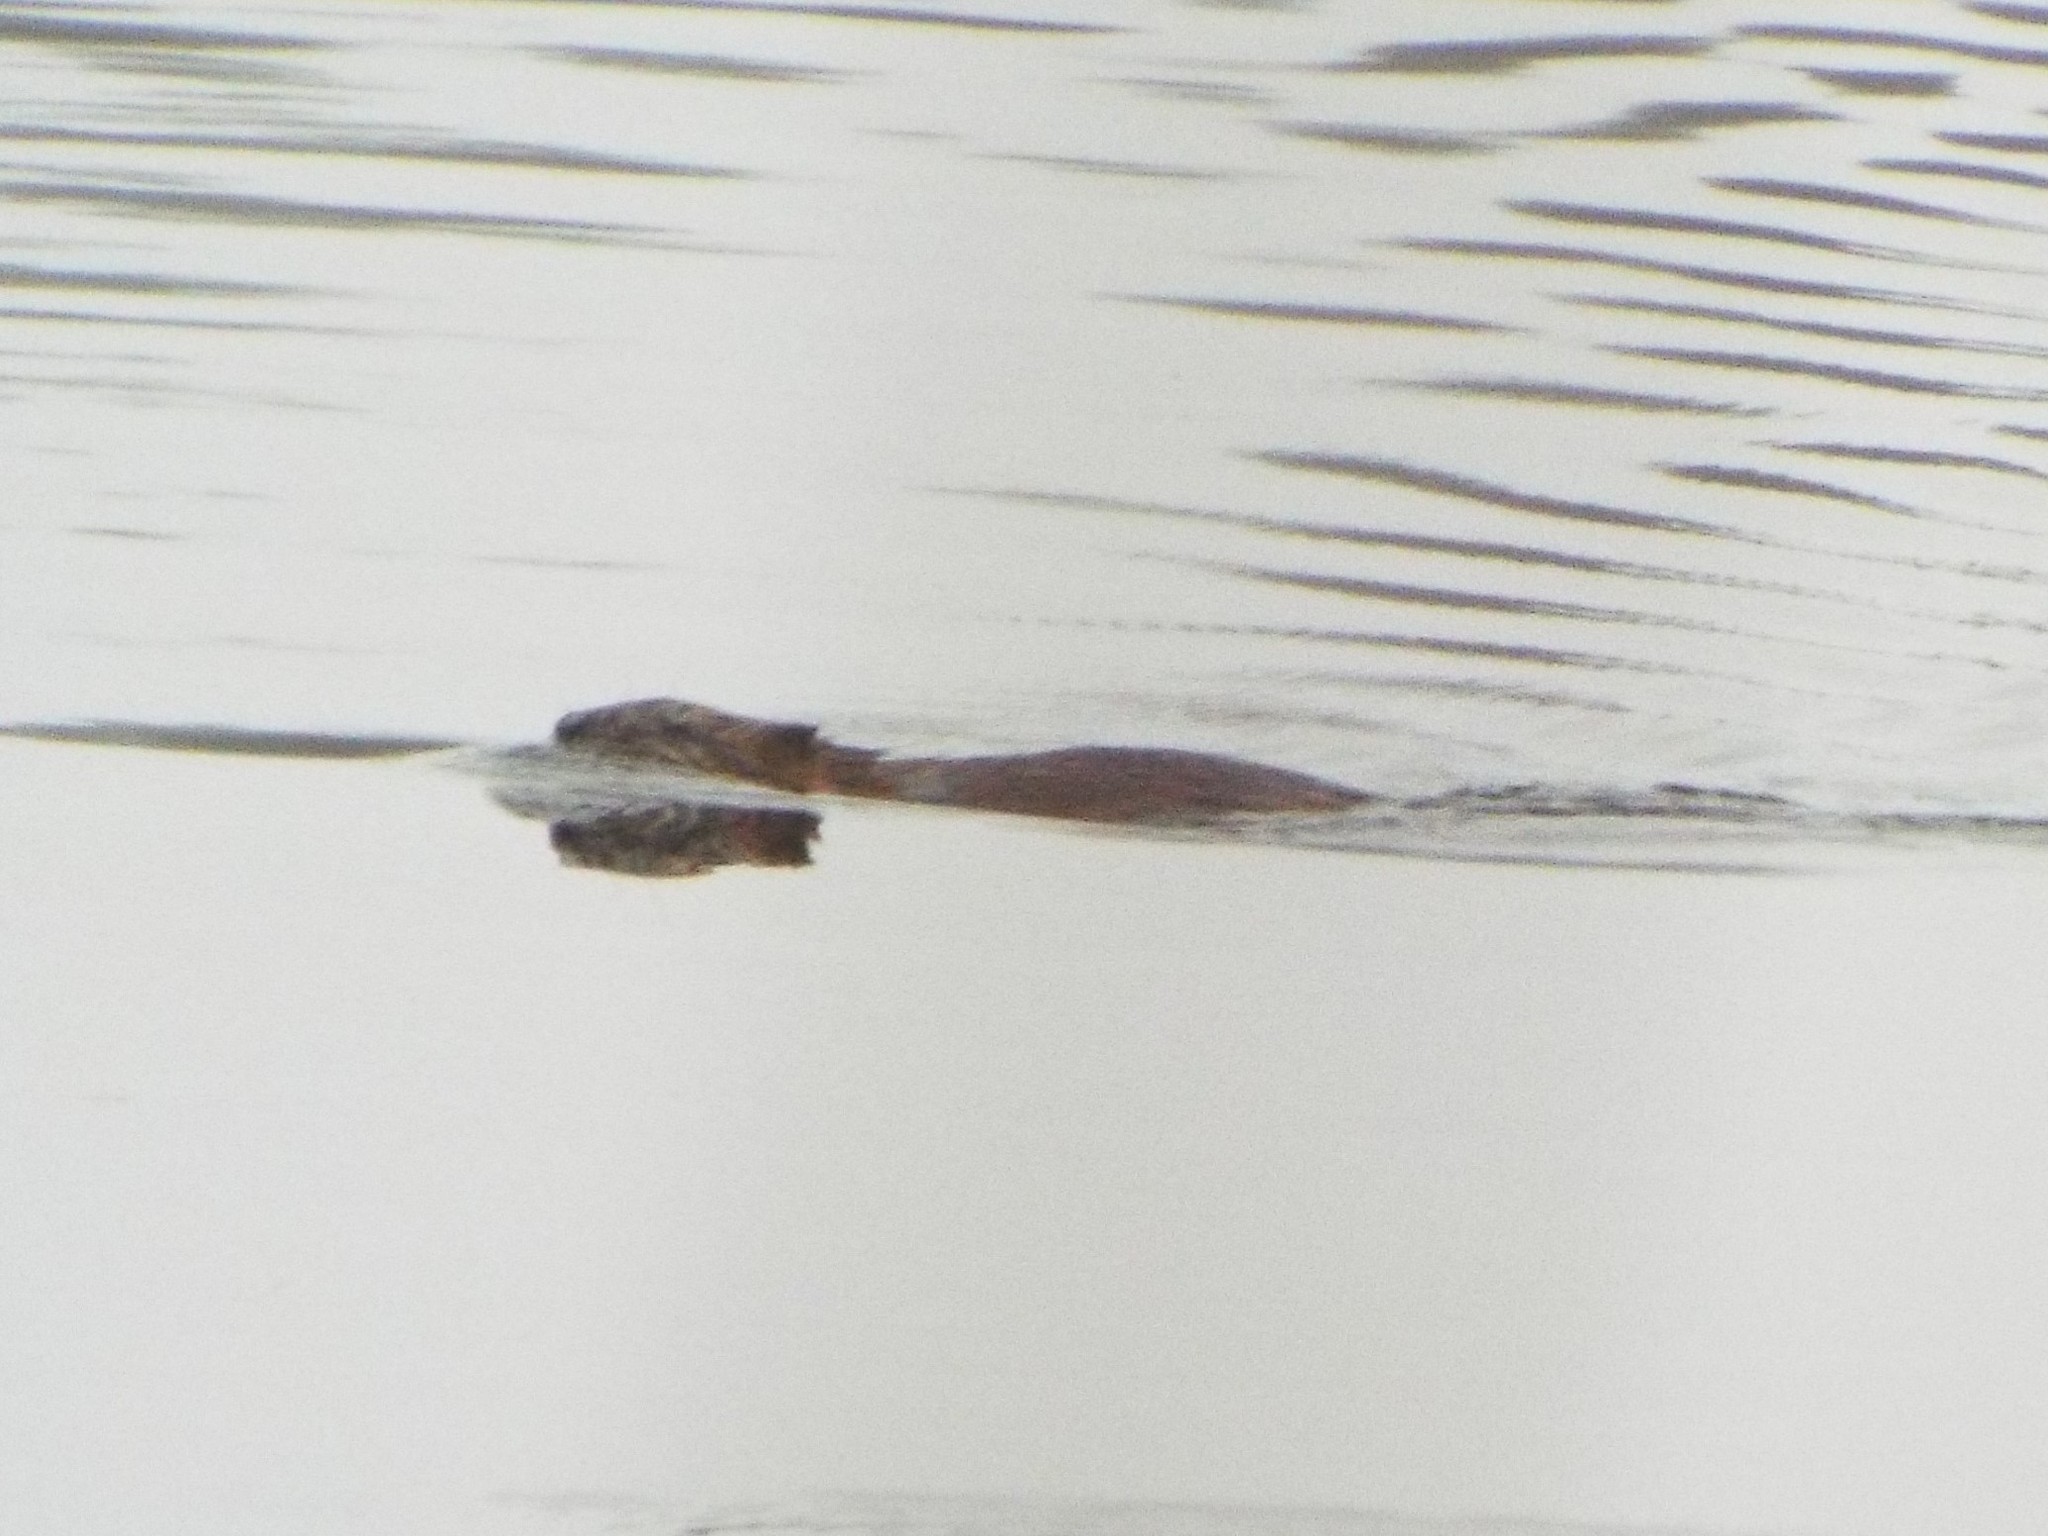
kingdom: Animalia
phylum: Chordata
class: Mammalia
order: Rodentia
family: Cricetidae
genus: Ondatra
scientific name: Ondatra zibethicus
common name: Muskrat
